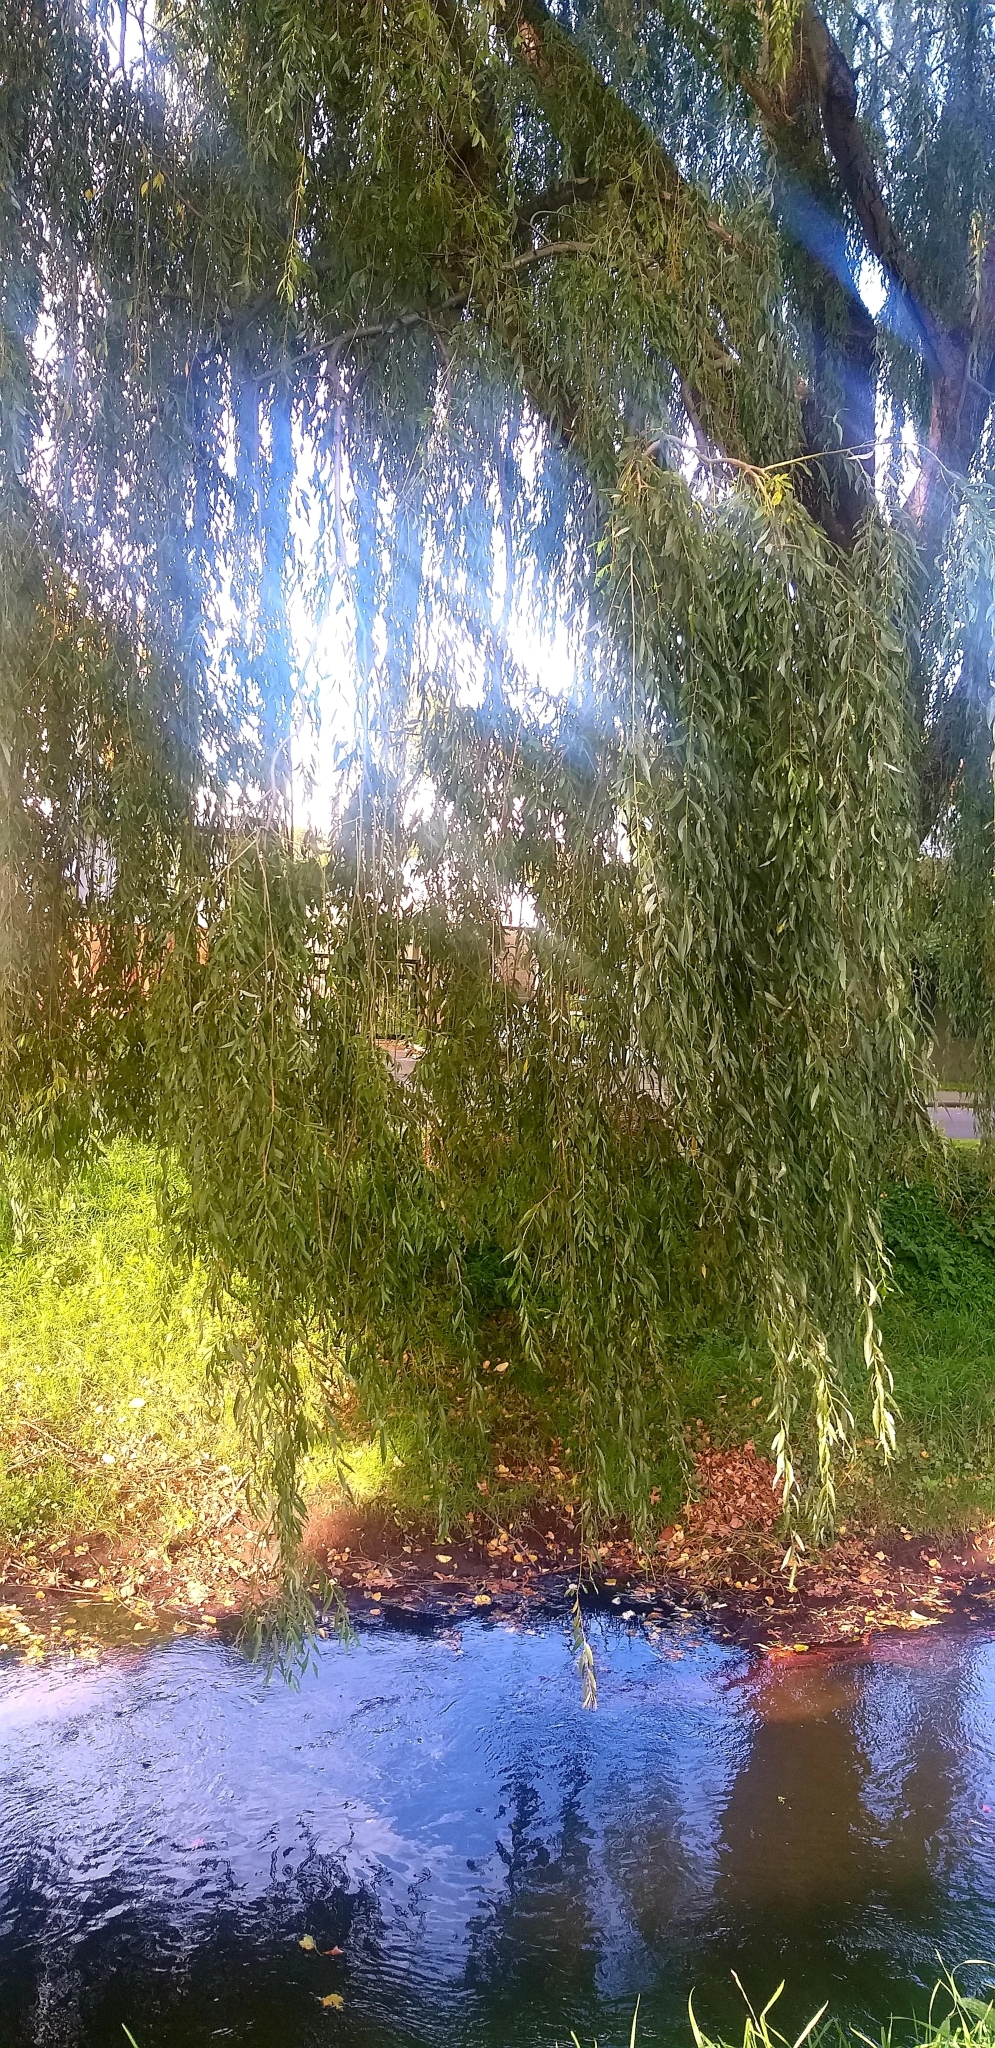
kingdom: Plantae
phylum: Tracheophyta
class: Magnoliopsida
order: Malpighiales
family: Salicaceae
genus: Salix
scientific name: Salix babylonica
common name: Weeping willow
